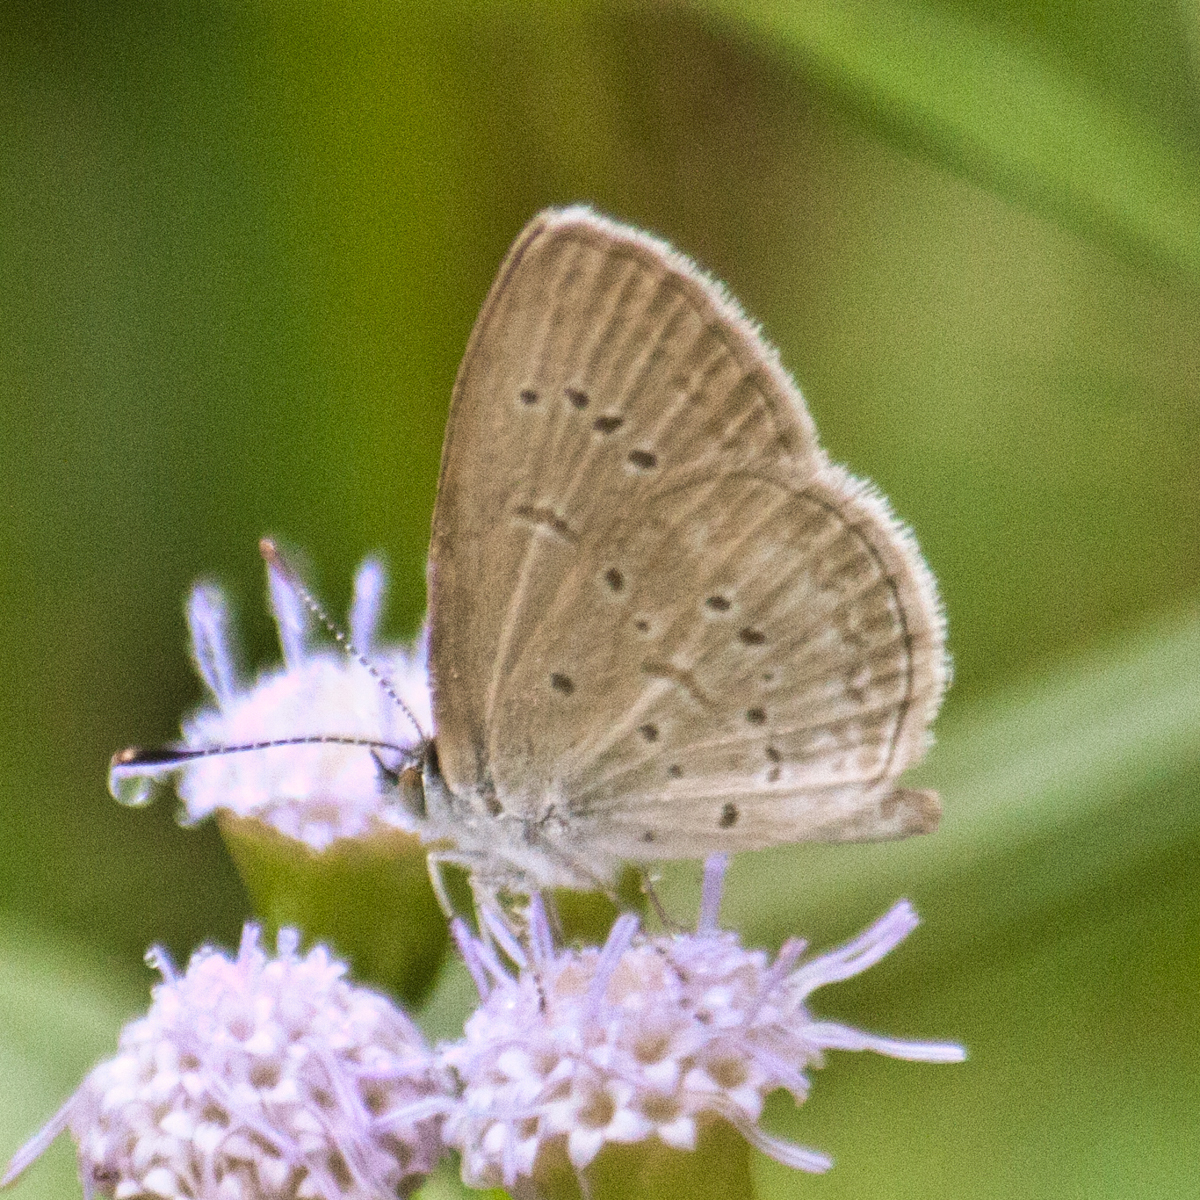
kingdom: Animalia
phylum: Arthropoda
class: Insecta
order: Lepidoptera
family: Lycaenidae
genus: Zizina
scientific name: Zizina otis
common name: Lesser grass blue
